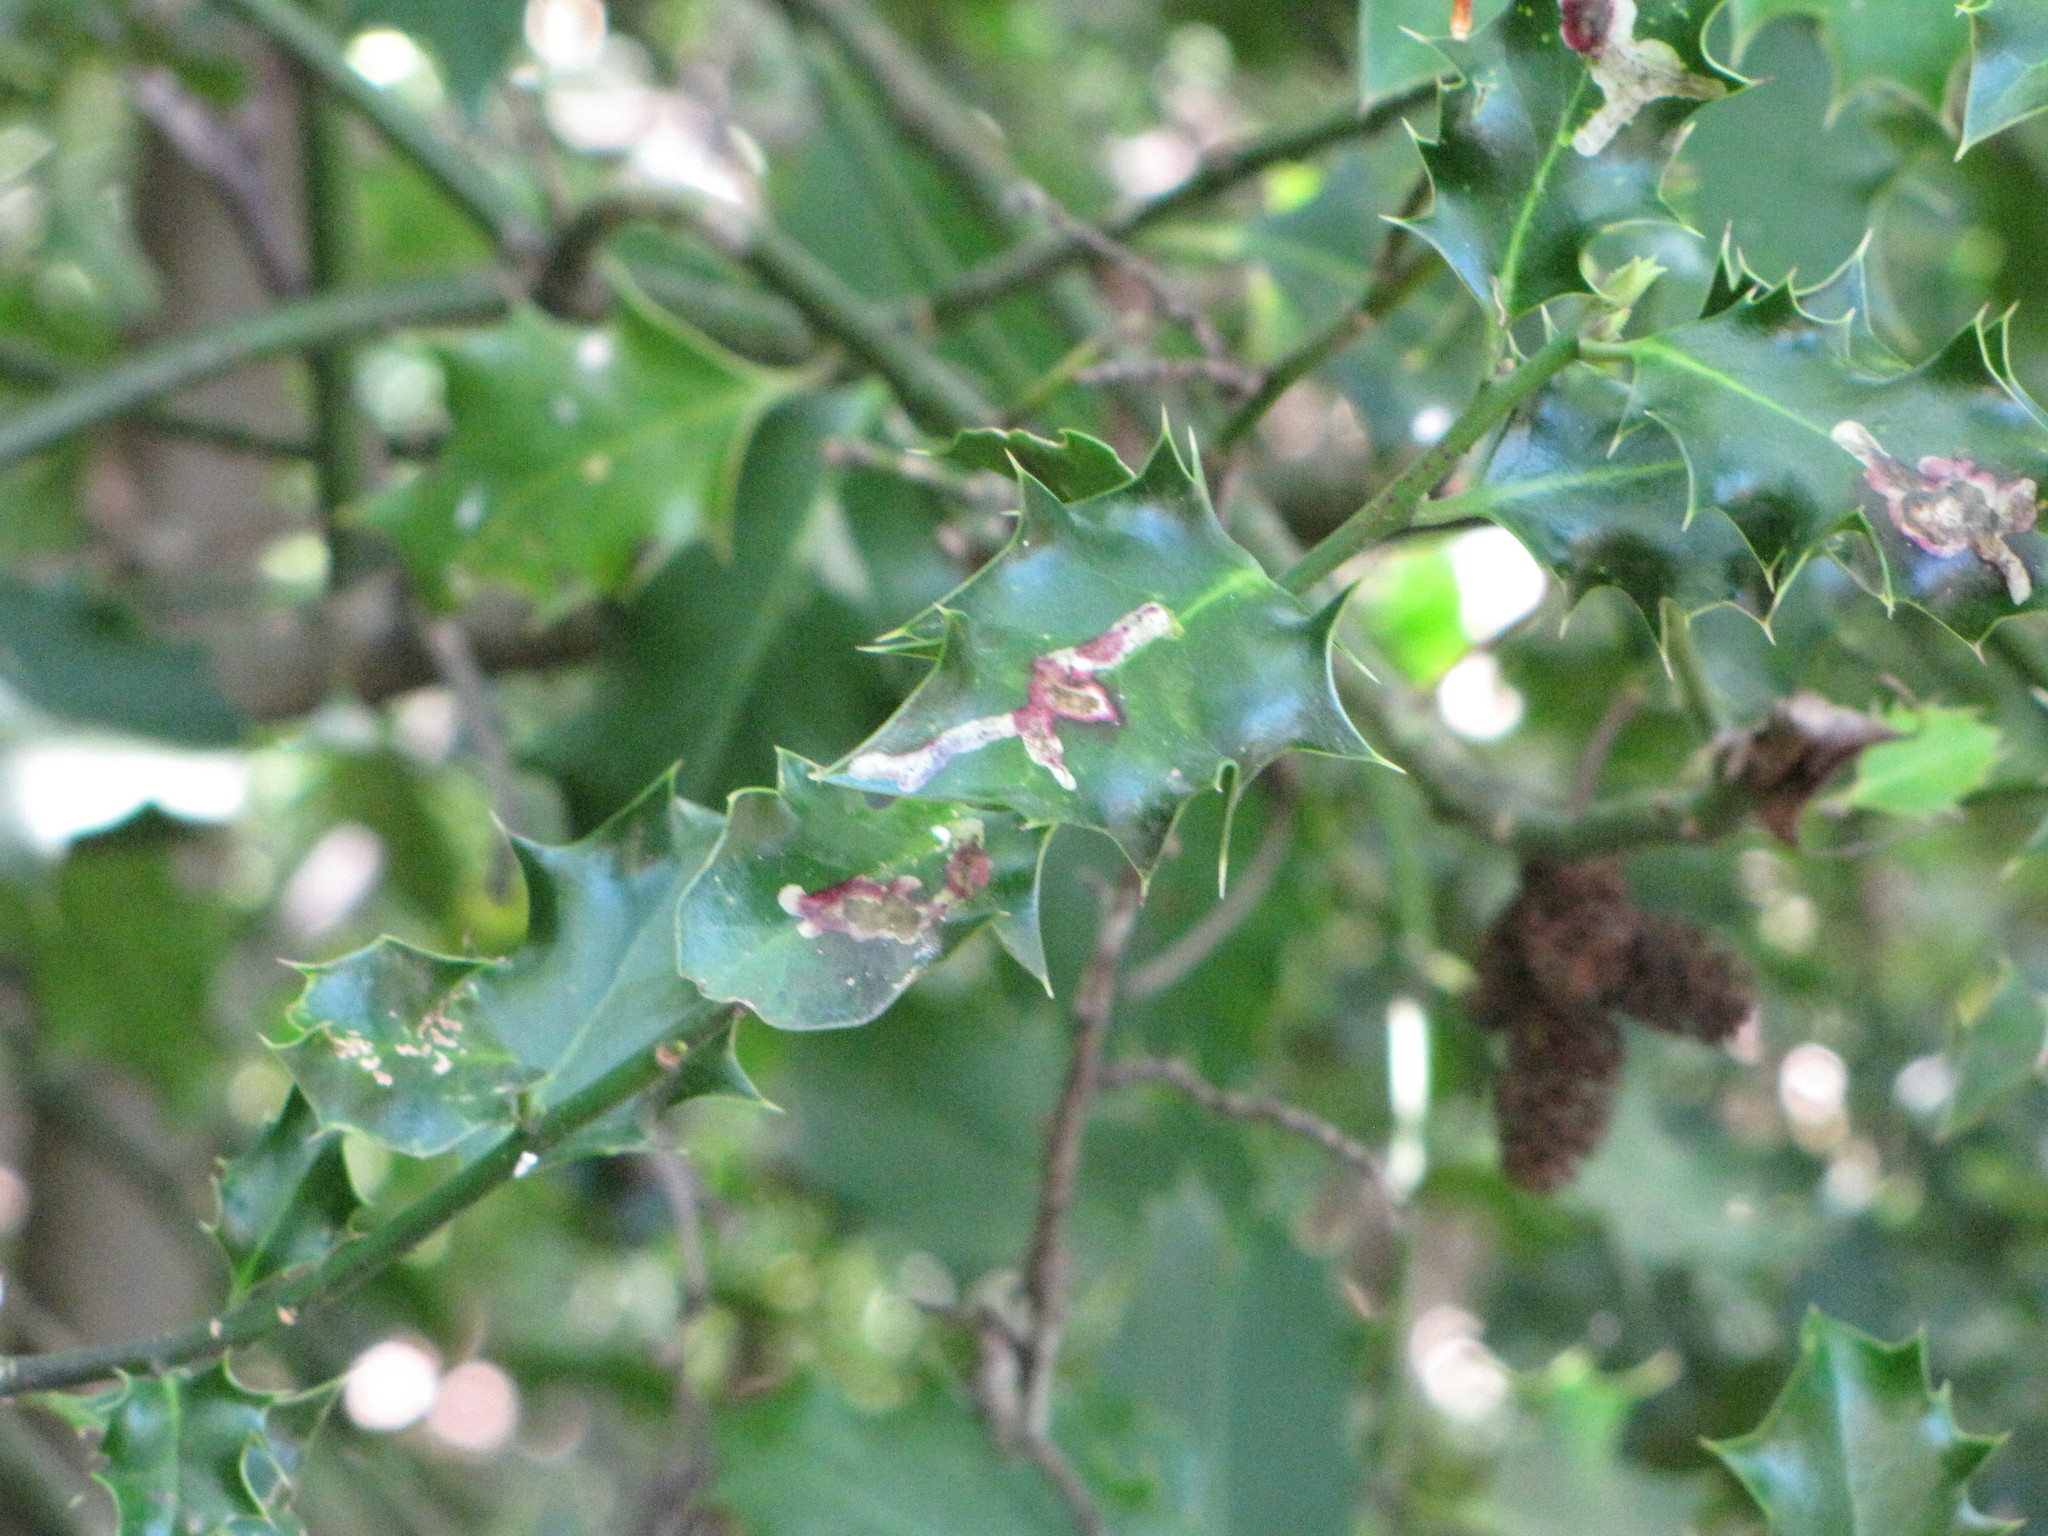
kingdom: Animalia
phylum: Arthropoda
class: Insecta
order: Diptera
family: Agromyzidae
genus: Phytomyza
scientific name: Phytomyza ilicis
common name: Holly leafminer
